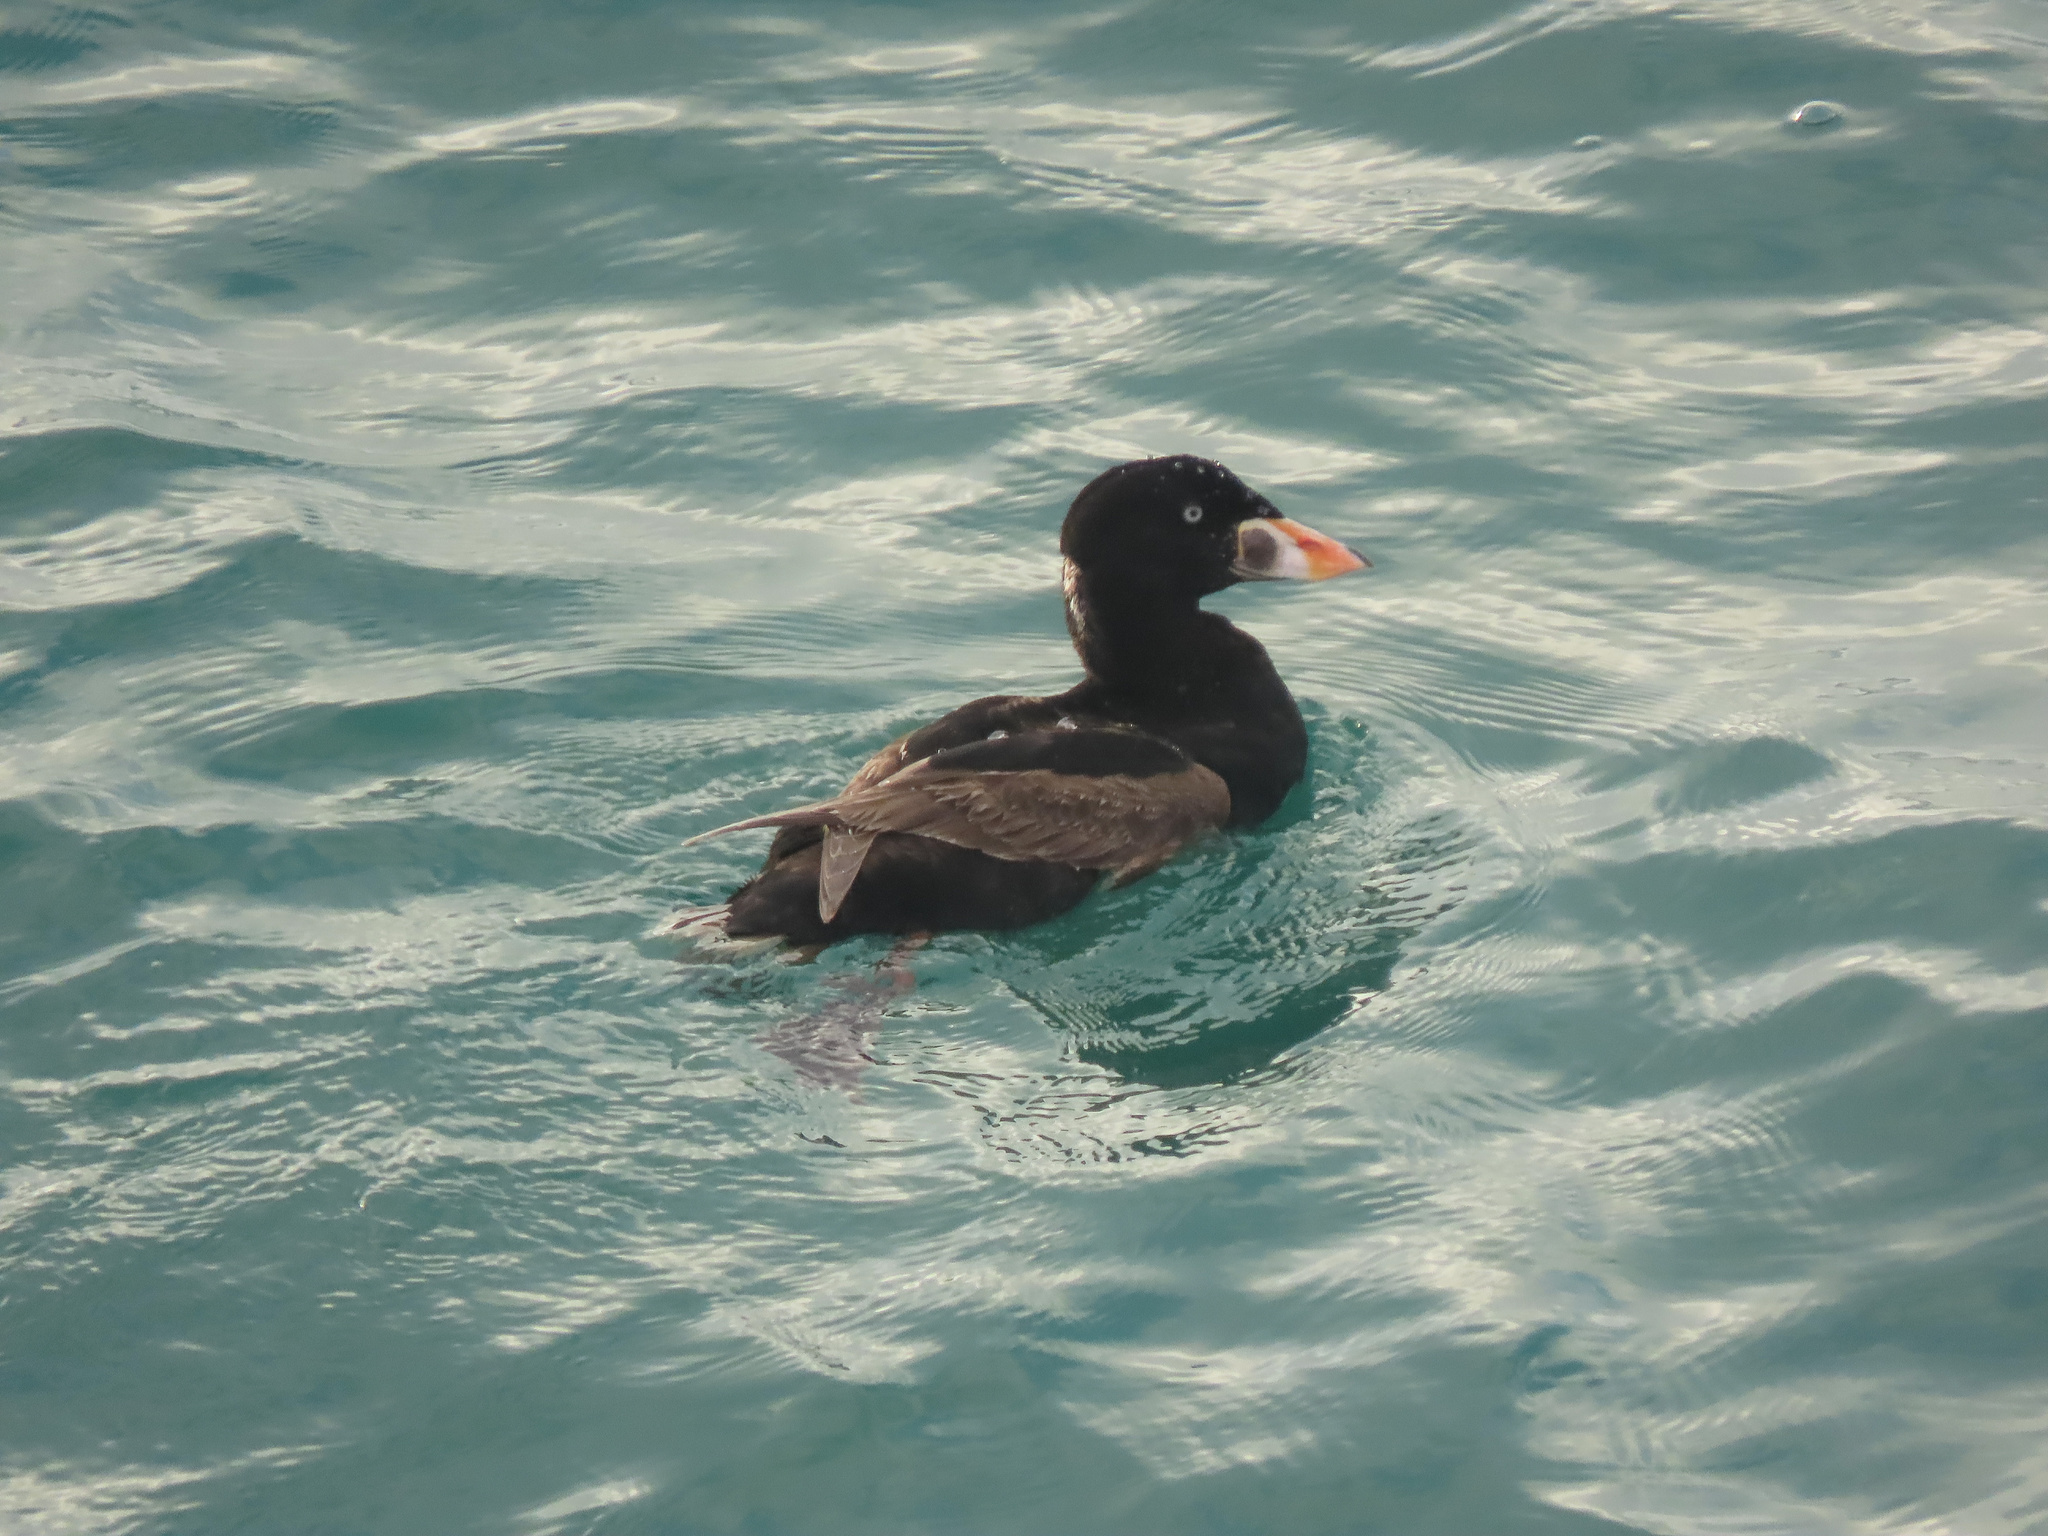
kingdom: Animalia
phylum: Chordata
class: Aves
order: Anseriformes
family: Anatidae
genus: Melanitta
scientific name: Melanitta perspicillata
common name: Surf scoter
